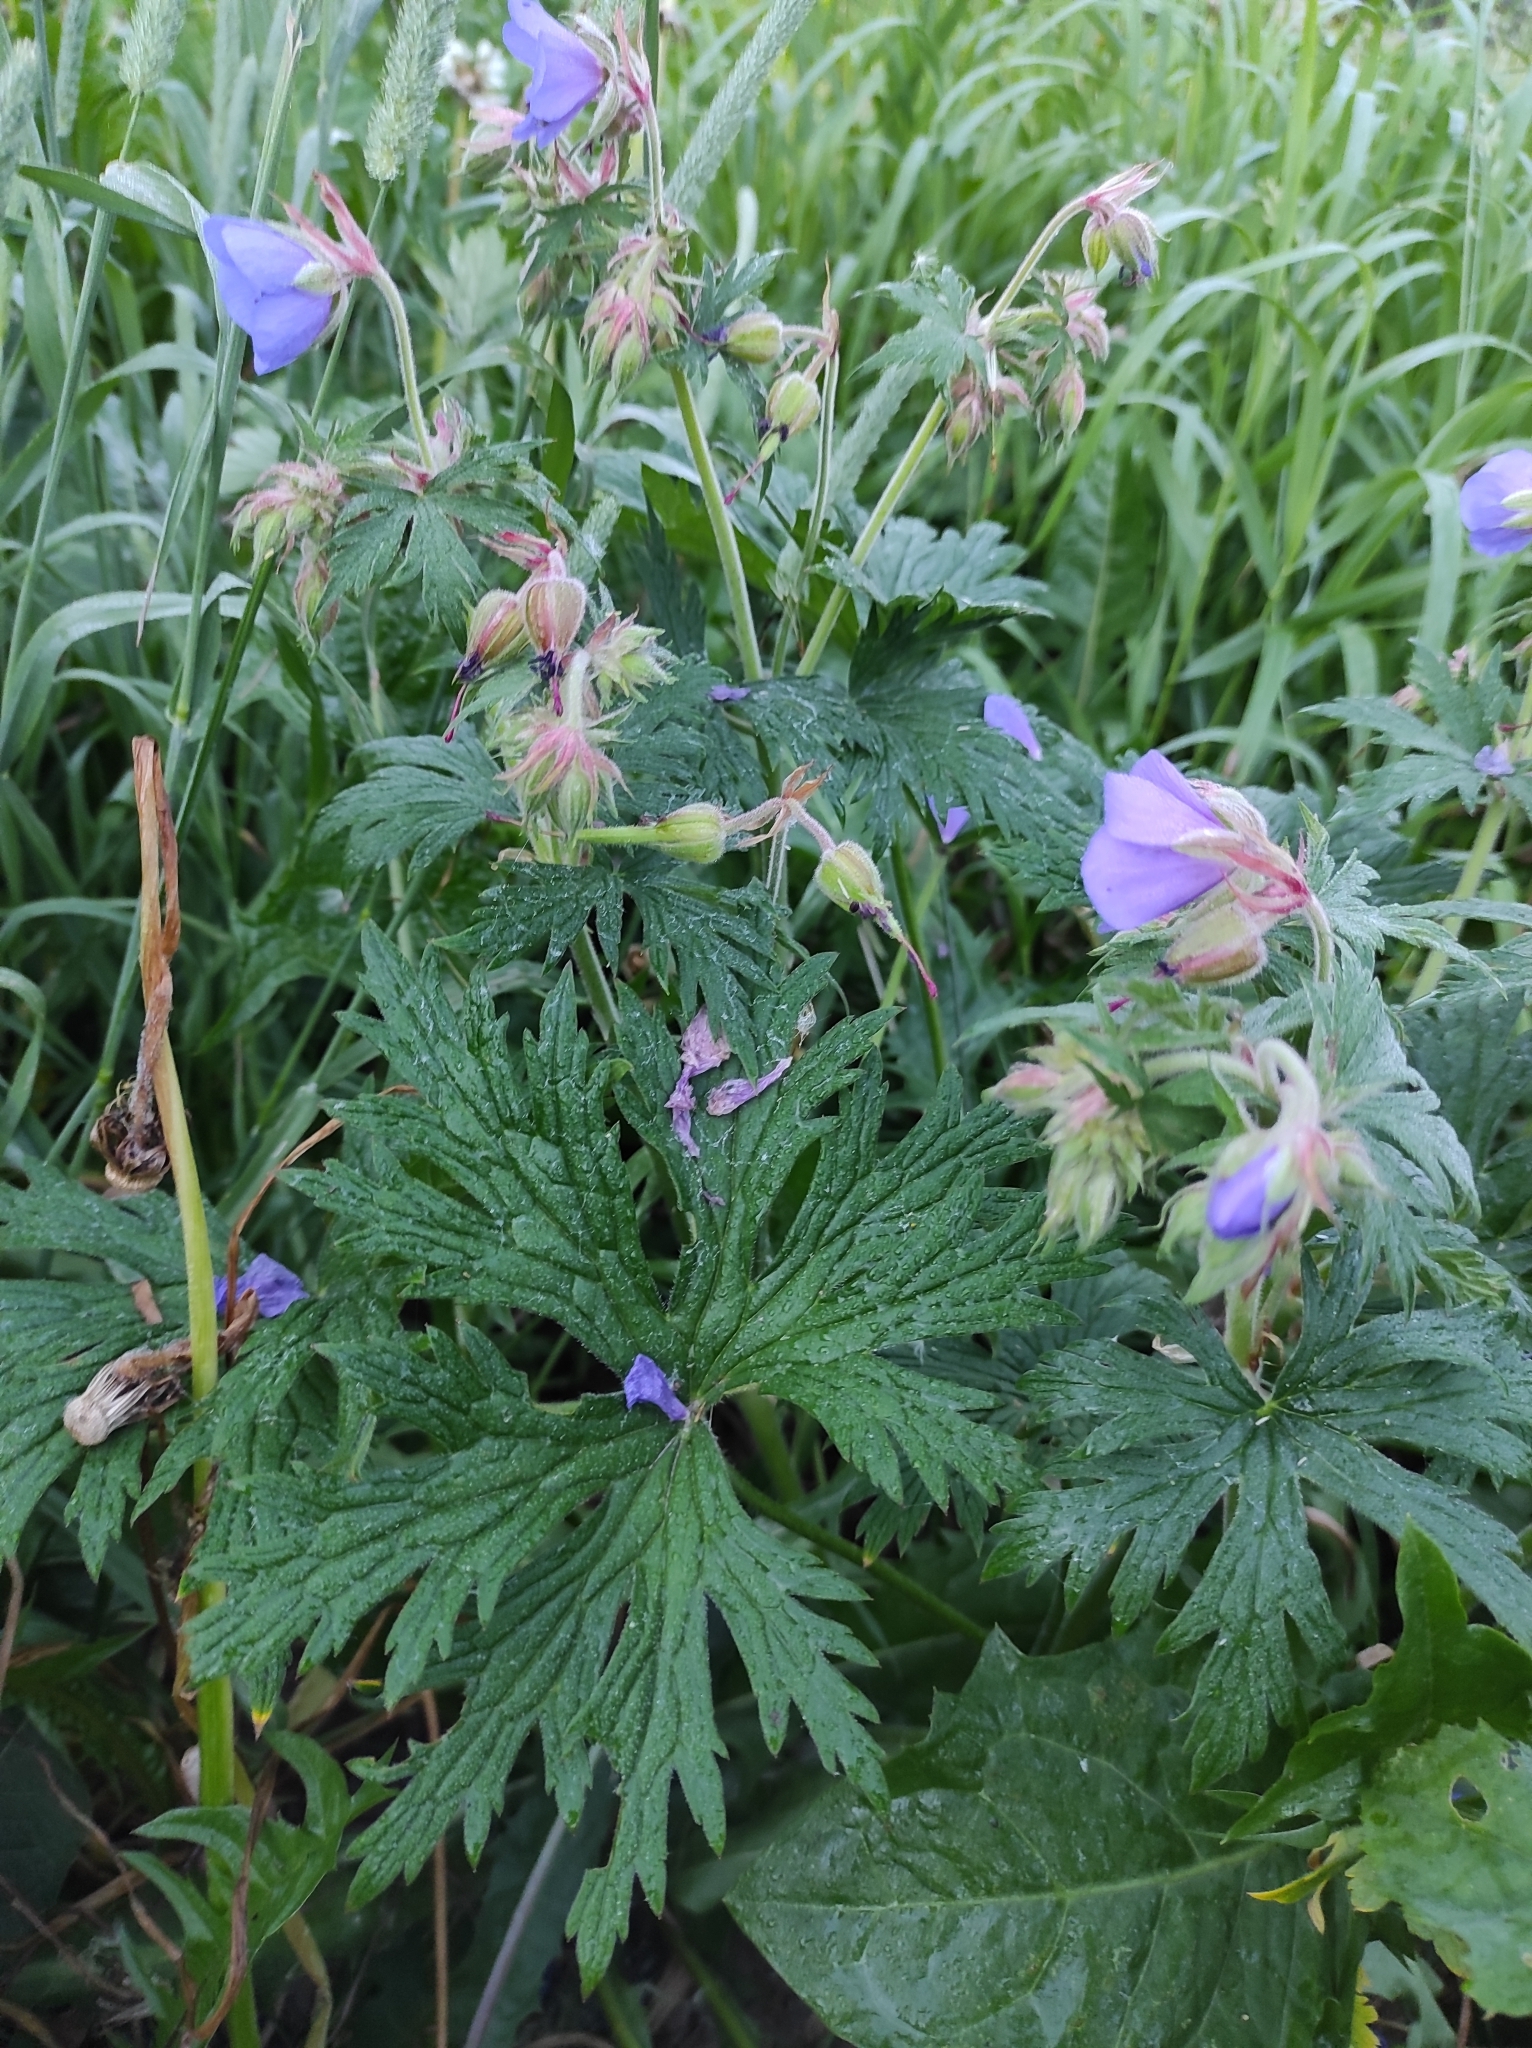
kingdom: Plantae
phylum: Tracheophyta
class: Magnoliopsida
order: Geraniales
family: Geraniaceae
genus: Geranium
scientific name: Geranium pratense
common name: Meadow crane's-bill
